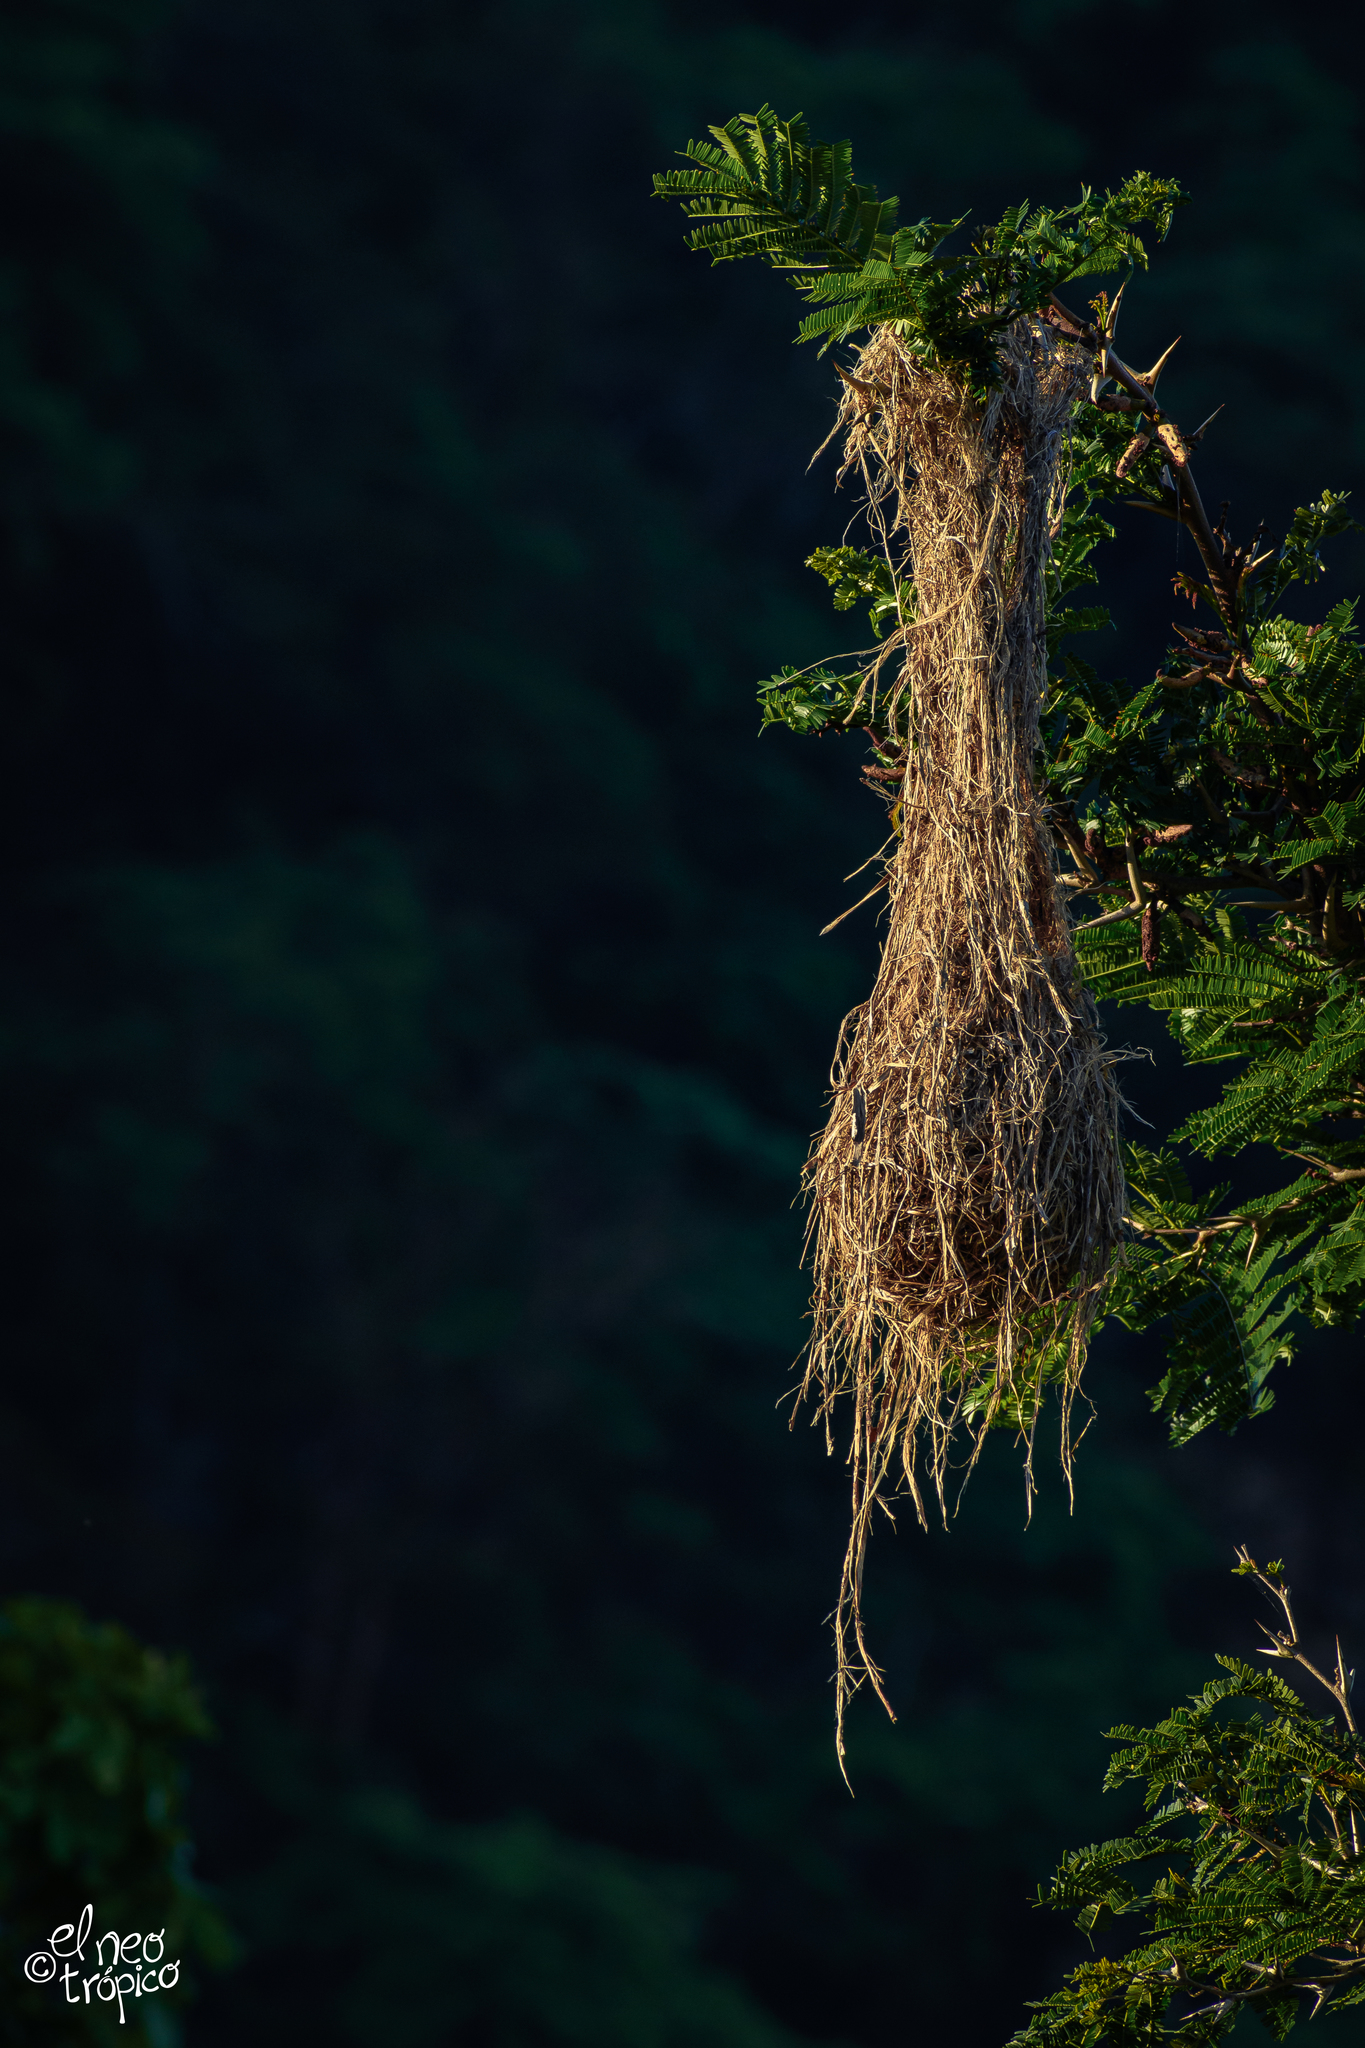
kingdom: Animalia
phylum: Chordata
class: Aves
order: Passeriformes
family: Icteridae
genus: Icterus
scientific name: Icterus pustulatus
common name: Streak-backed oriole
